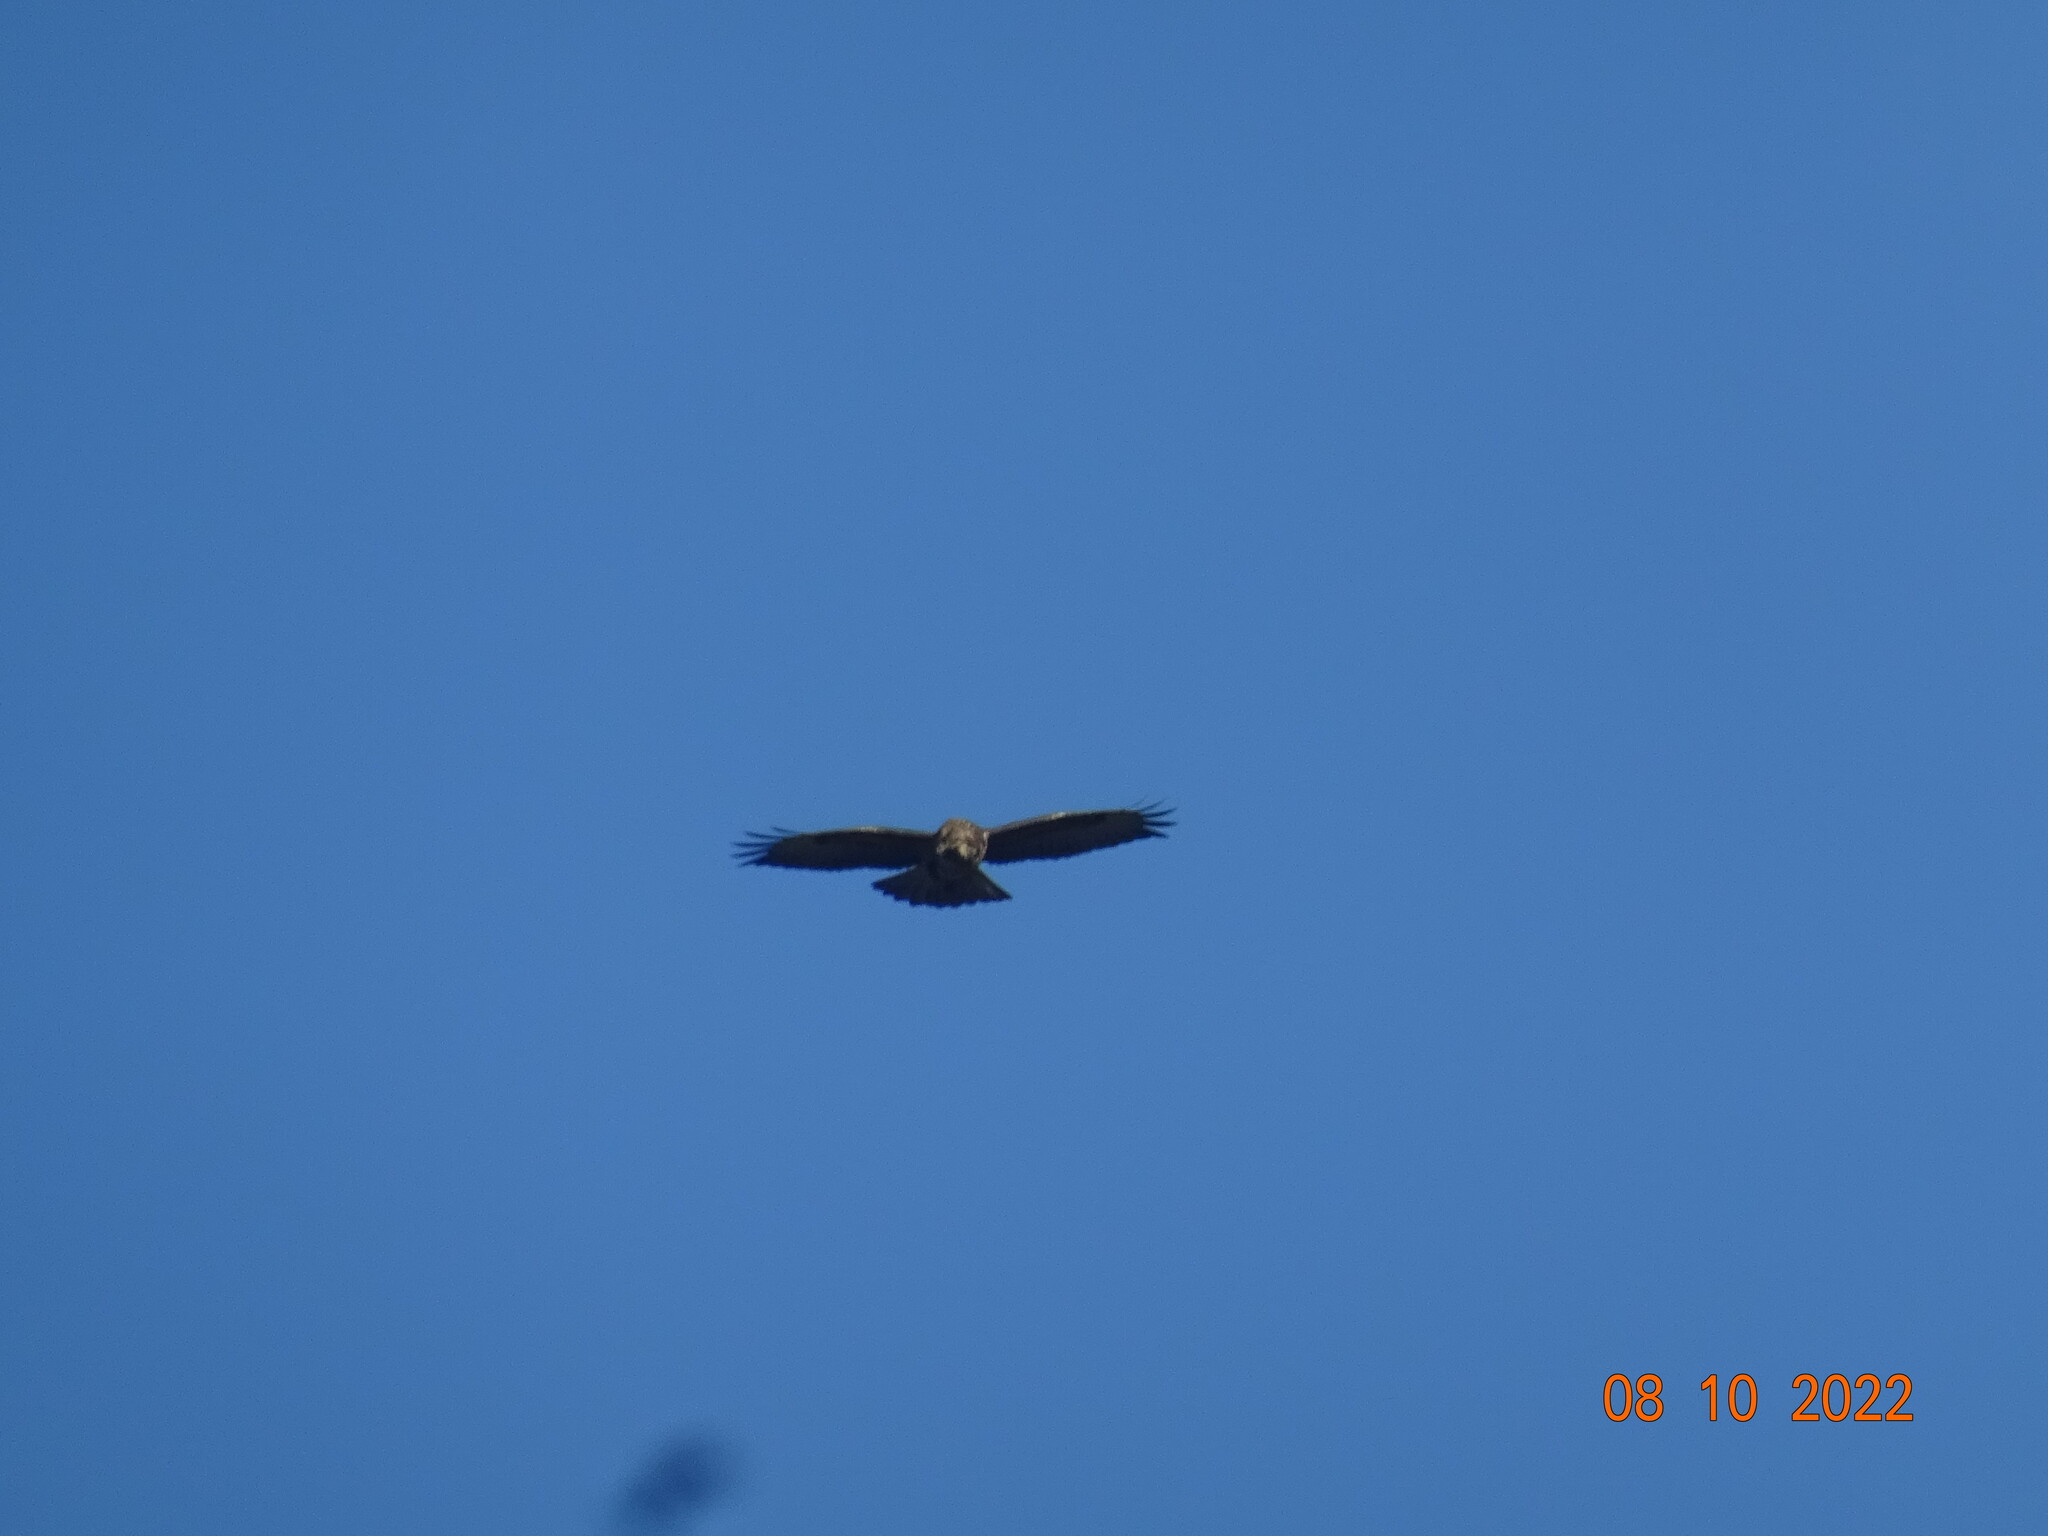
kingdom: Animalia
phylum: Chordata
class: Aves
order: Accipitriformes
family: Accipitridae
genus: Buteo
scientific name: Buteo buteo
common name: Common buzzard
